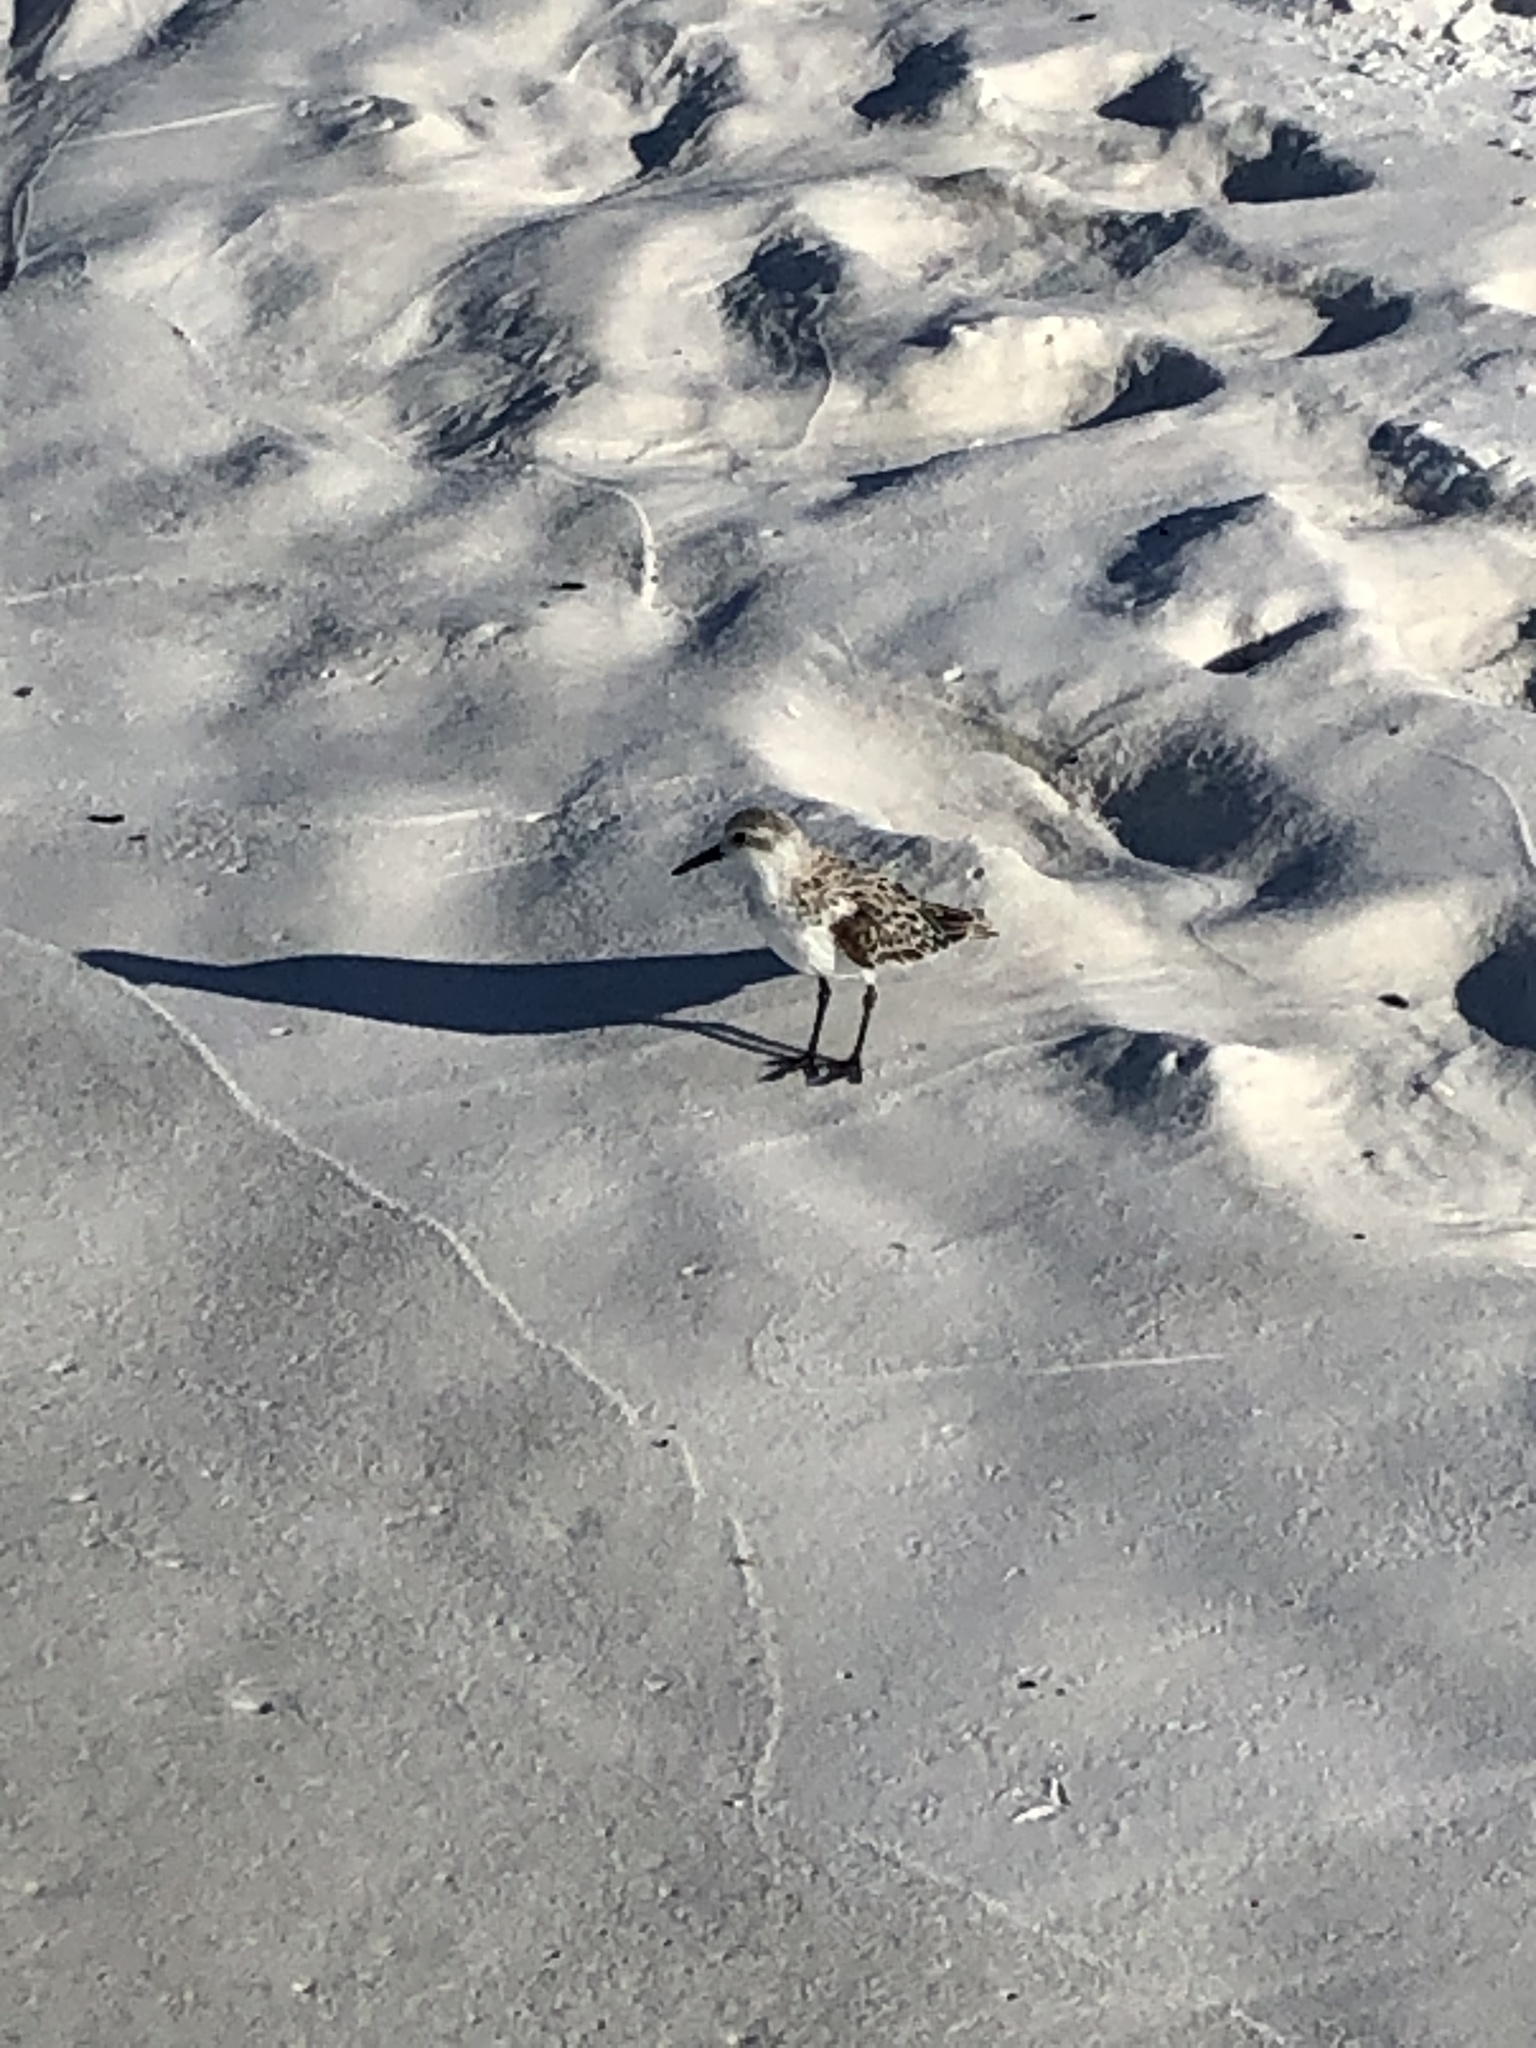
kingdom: Animalia
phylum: Chordata
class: Aves
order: Charadriiformes
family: Scolopacidae
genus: Calidris
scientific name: Calidris alba
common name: Sanderling
